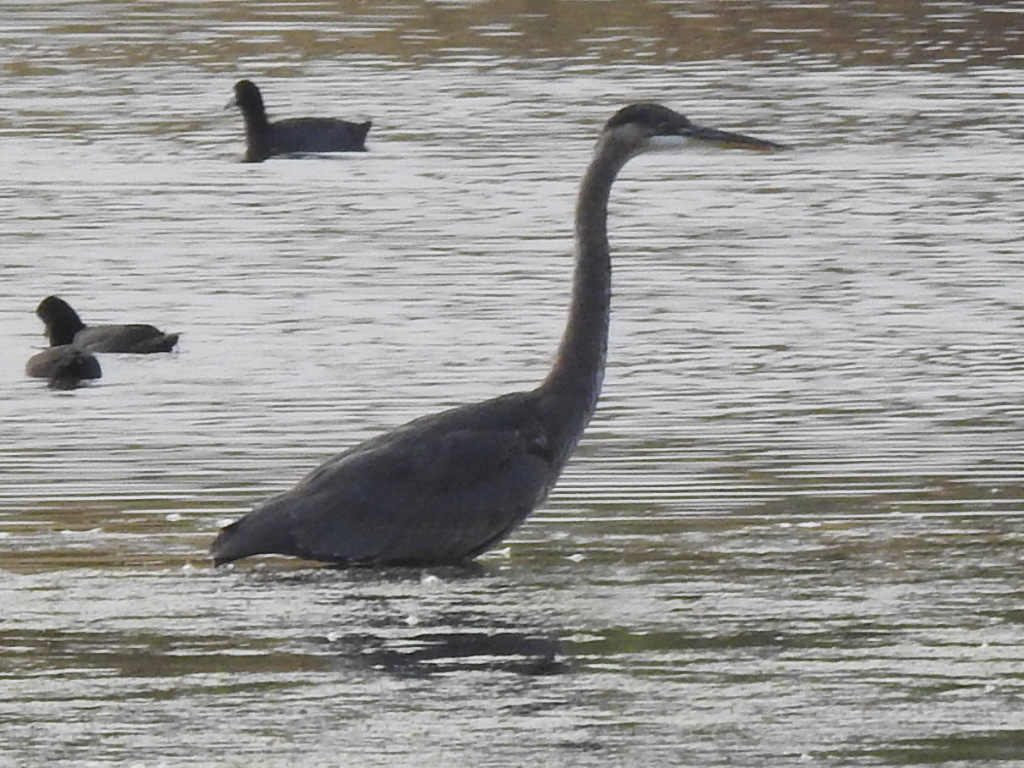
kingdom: Animalia
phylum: Chordata
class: Aves
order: Pelecaniformes
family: Ardeidae
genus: Ardea
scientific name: Ardea herodias
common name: Great blue heron
